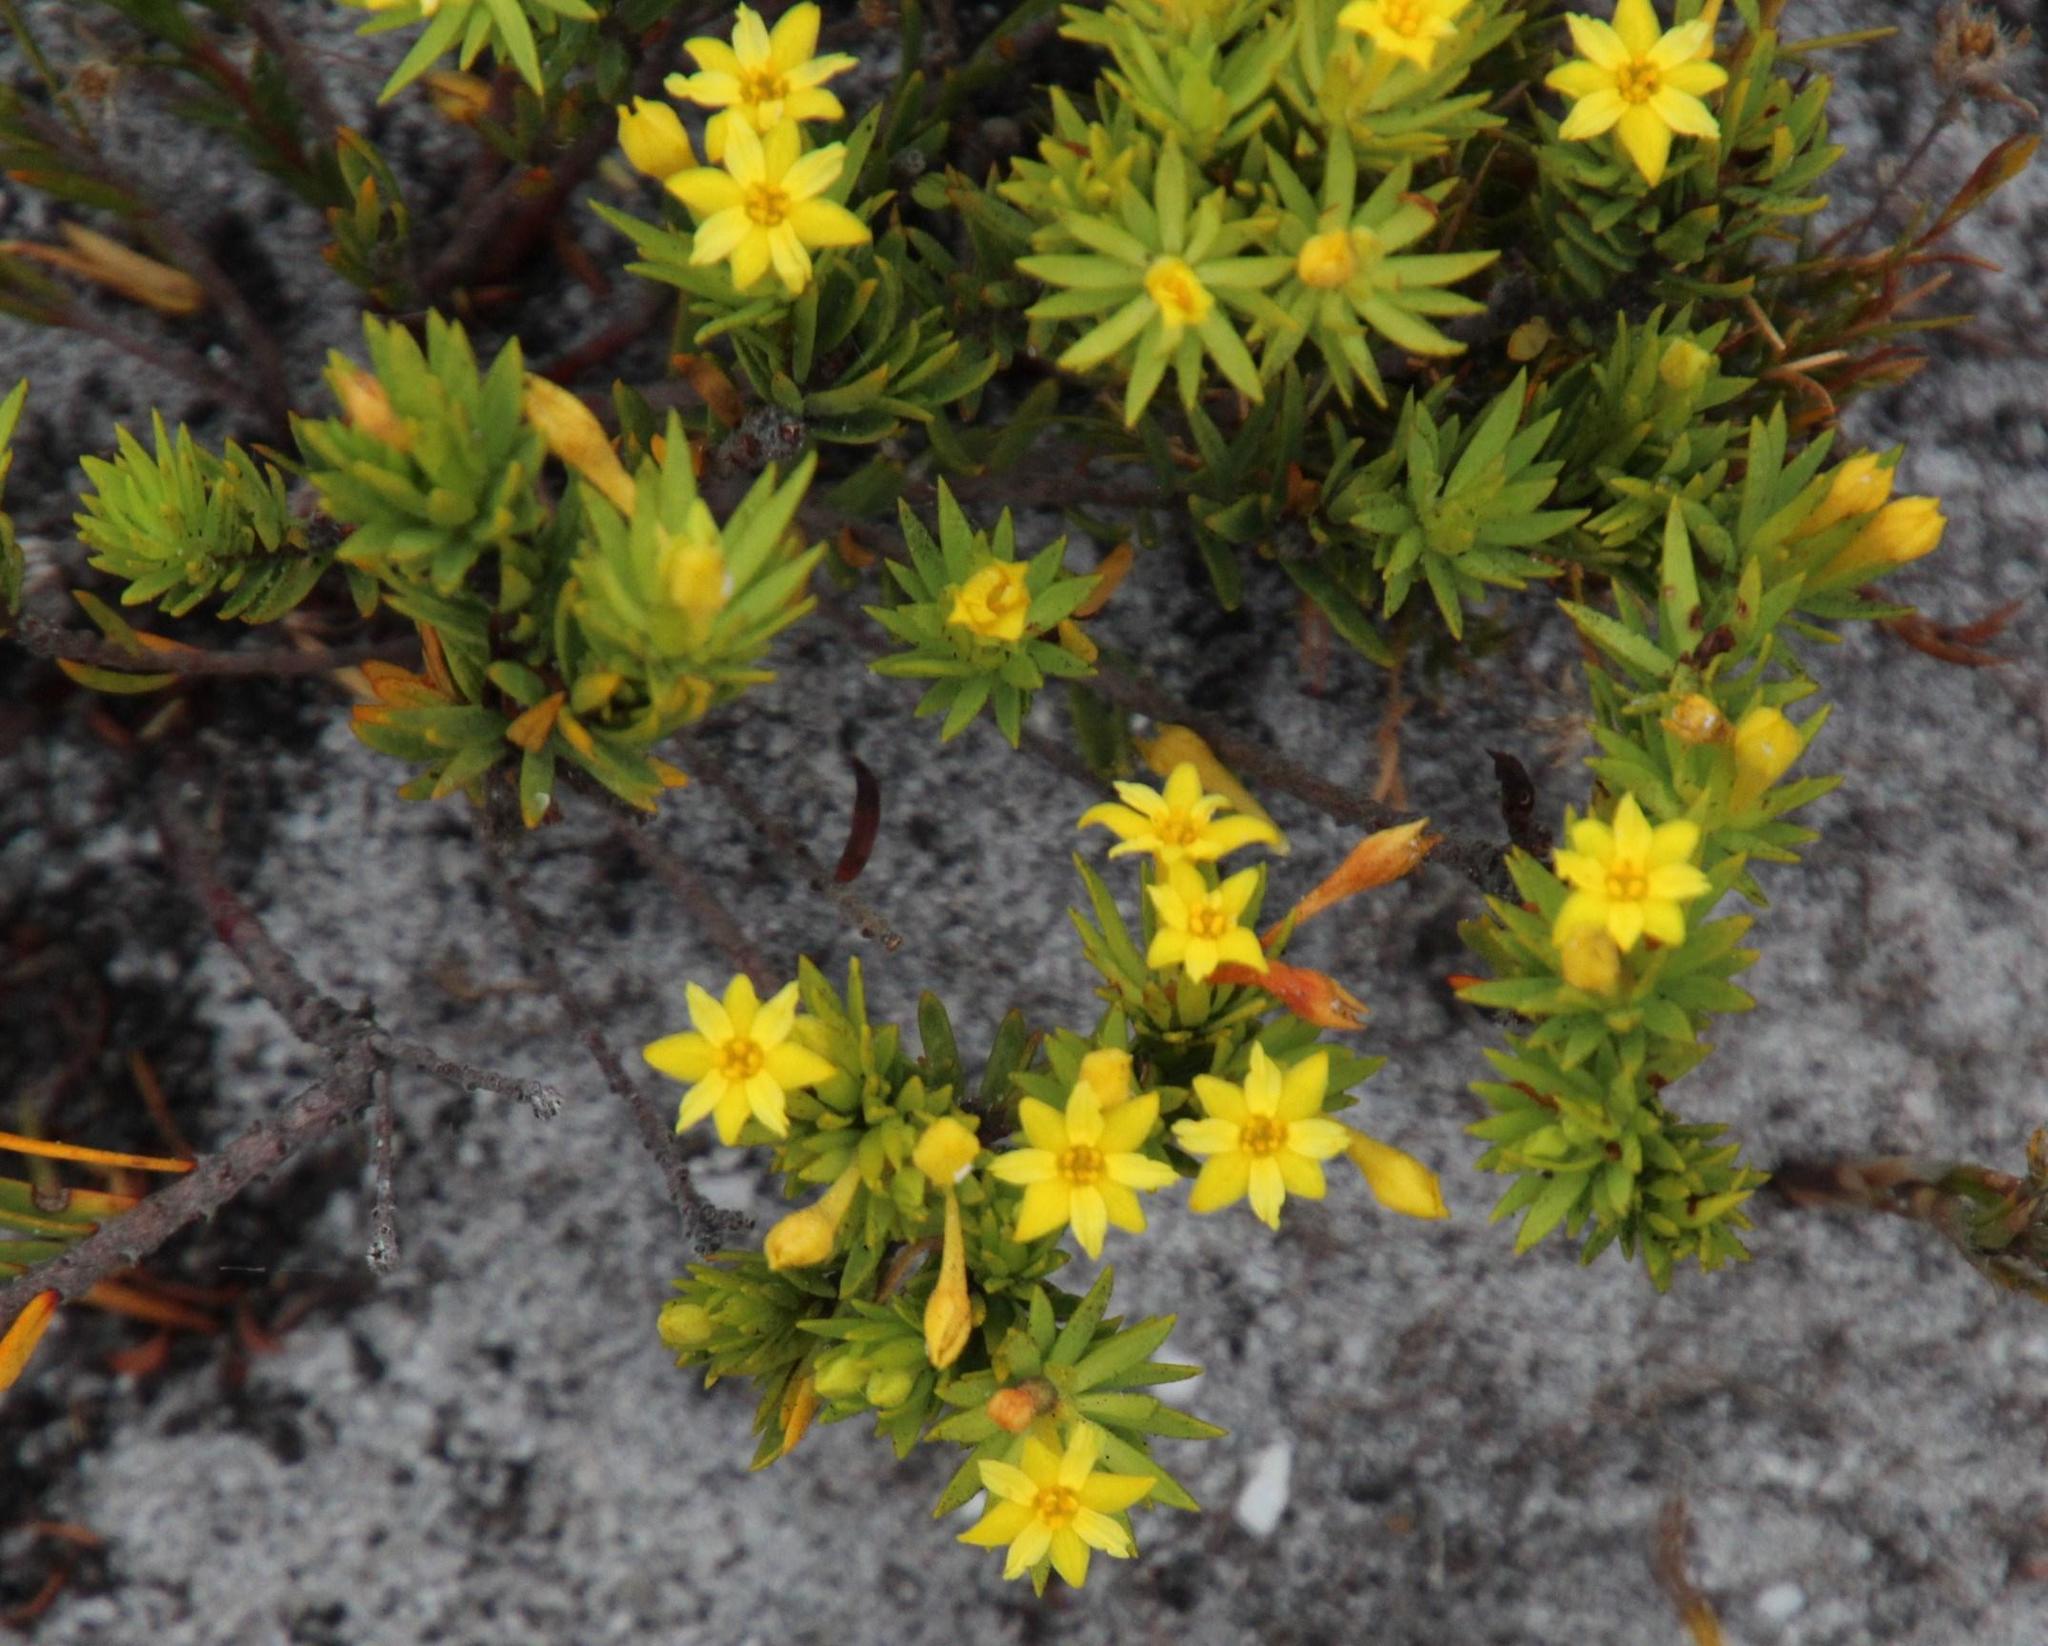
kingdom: Plantae
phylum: Tracheophyta
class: Magnoliopsida
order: Malvales
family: Thymelaeaceae
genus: Gnidia
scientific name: Gnidia juniperifolia
